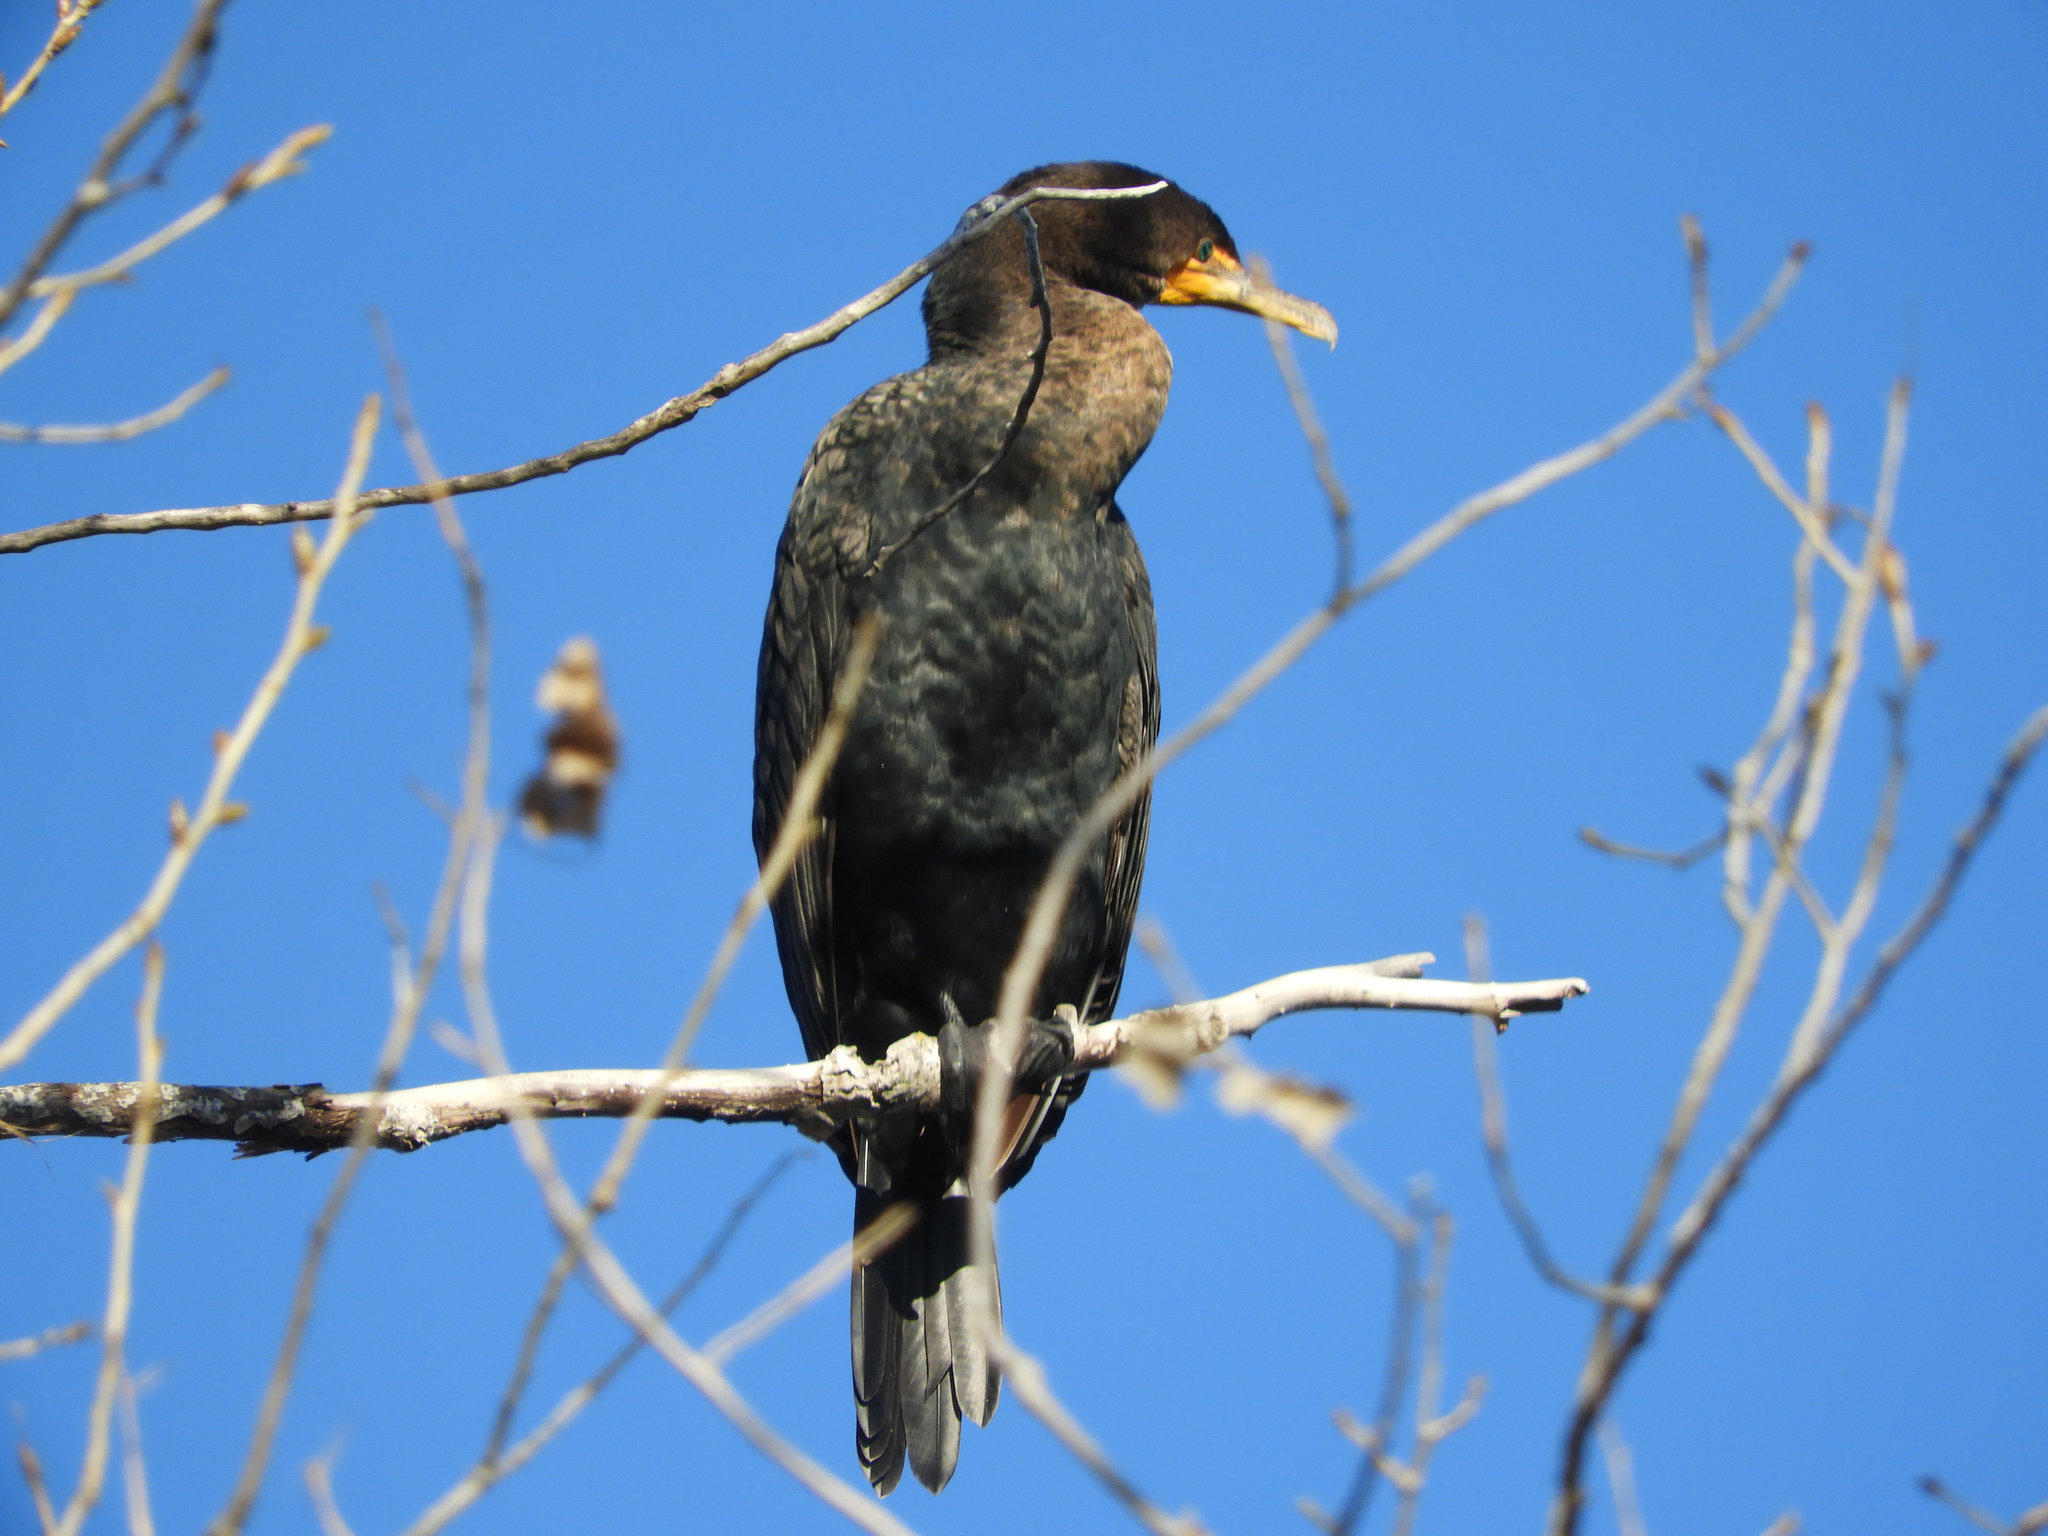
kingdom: Animalia
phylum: Chordata
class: Aves
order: Suliformes
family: Phalacrocoracidae
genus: Phalacrocorax
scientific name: Phalacrocorax auritus
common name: Double-crested cormorant
